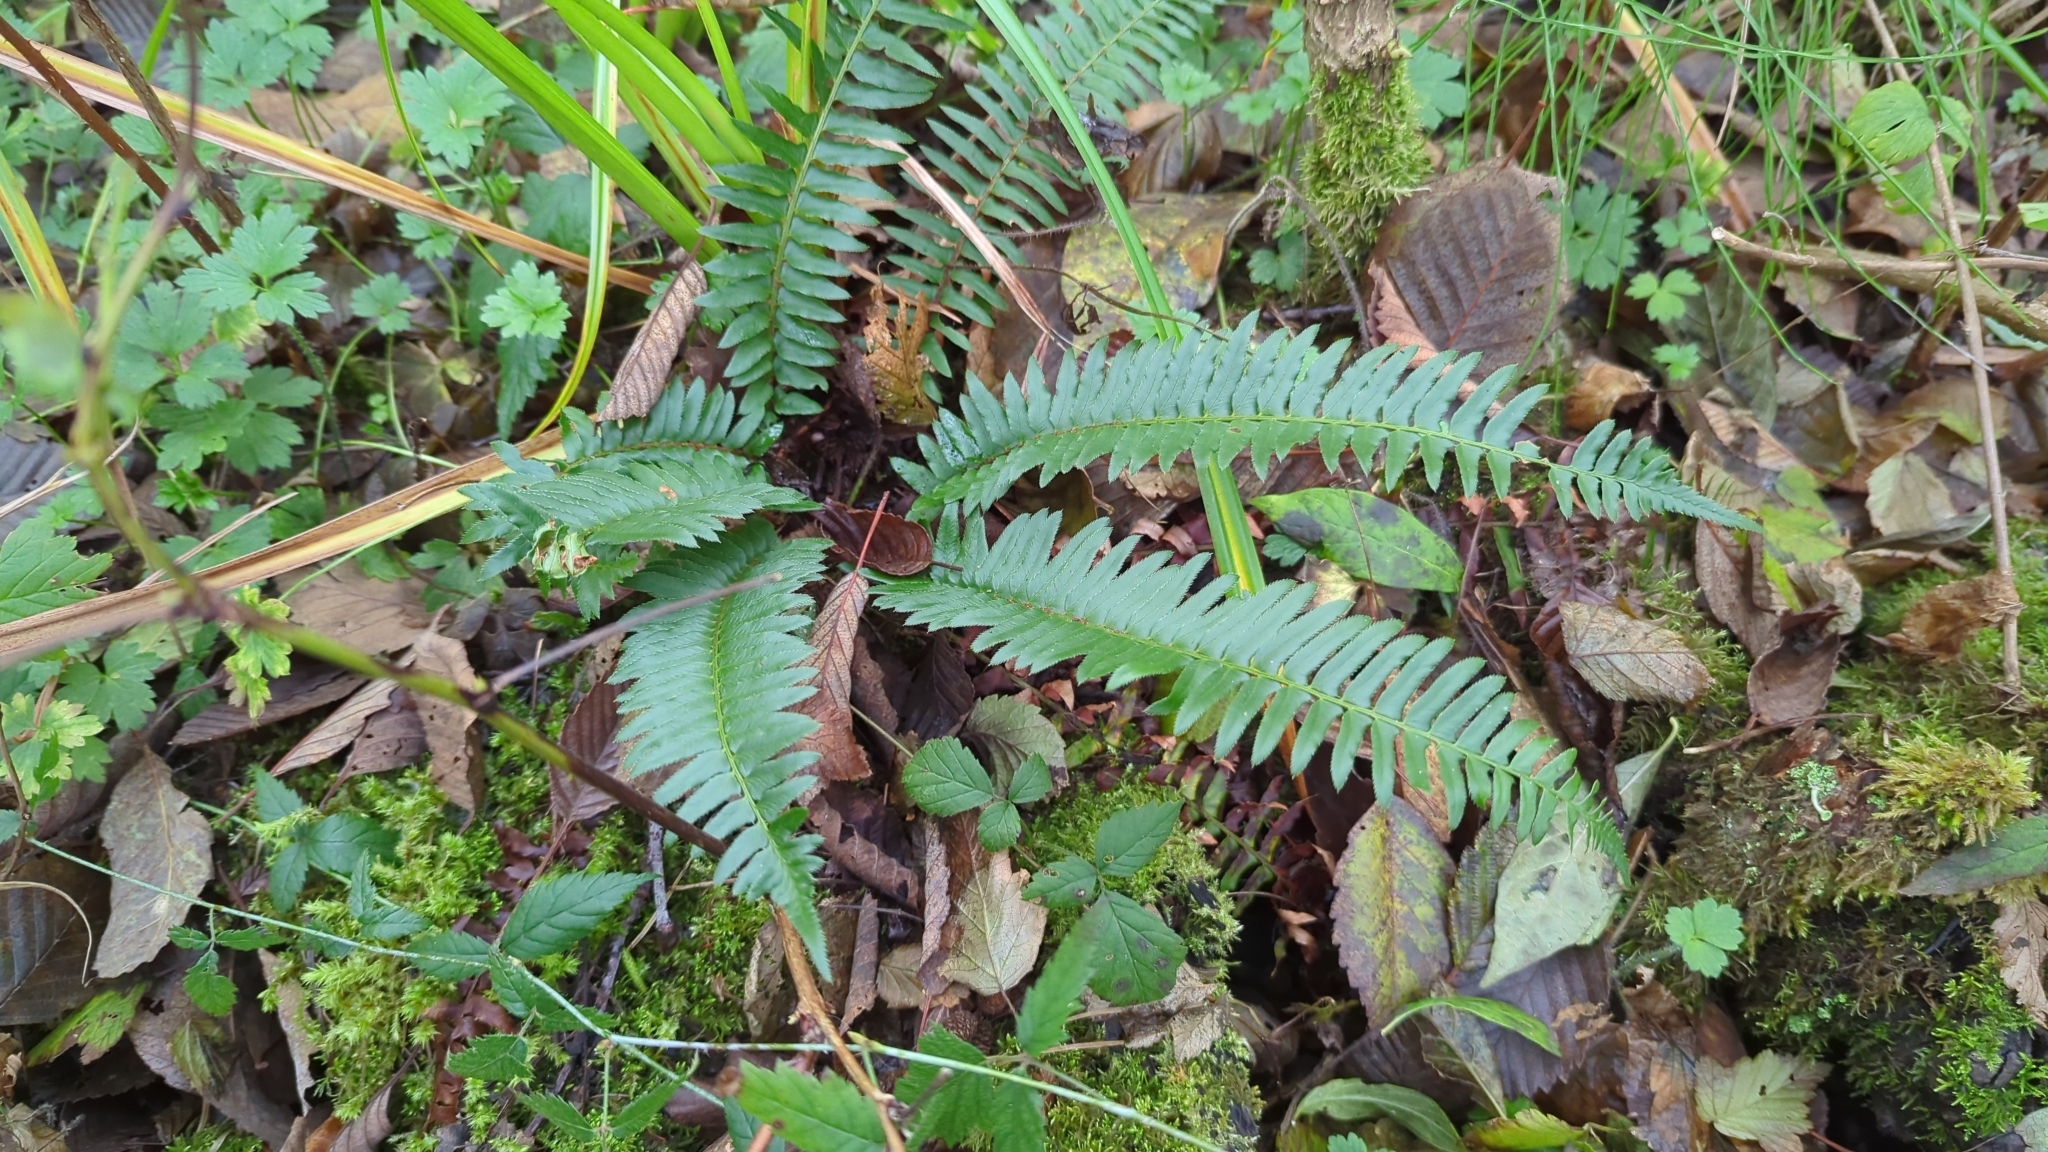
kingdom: Plantae
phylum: Tracheophyta
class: Polypodiopsida
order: Polypodiales
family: Dryopteridaceae
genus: Polystichum
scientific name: Polystichum munitum
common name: Western sword-fern
